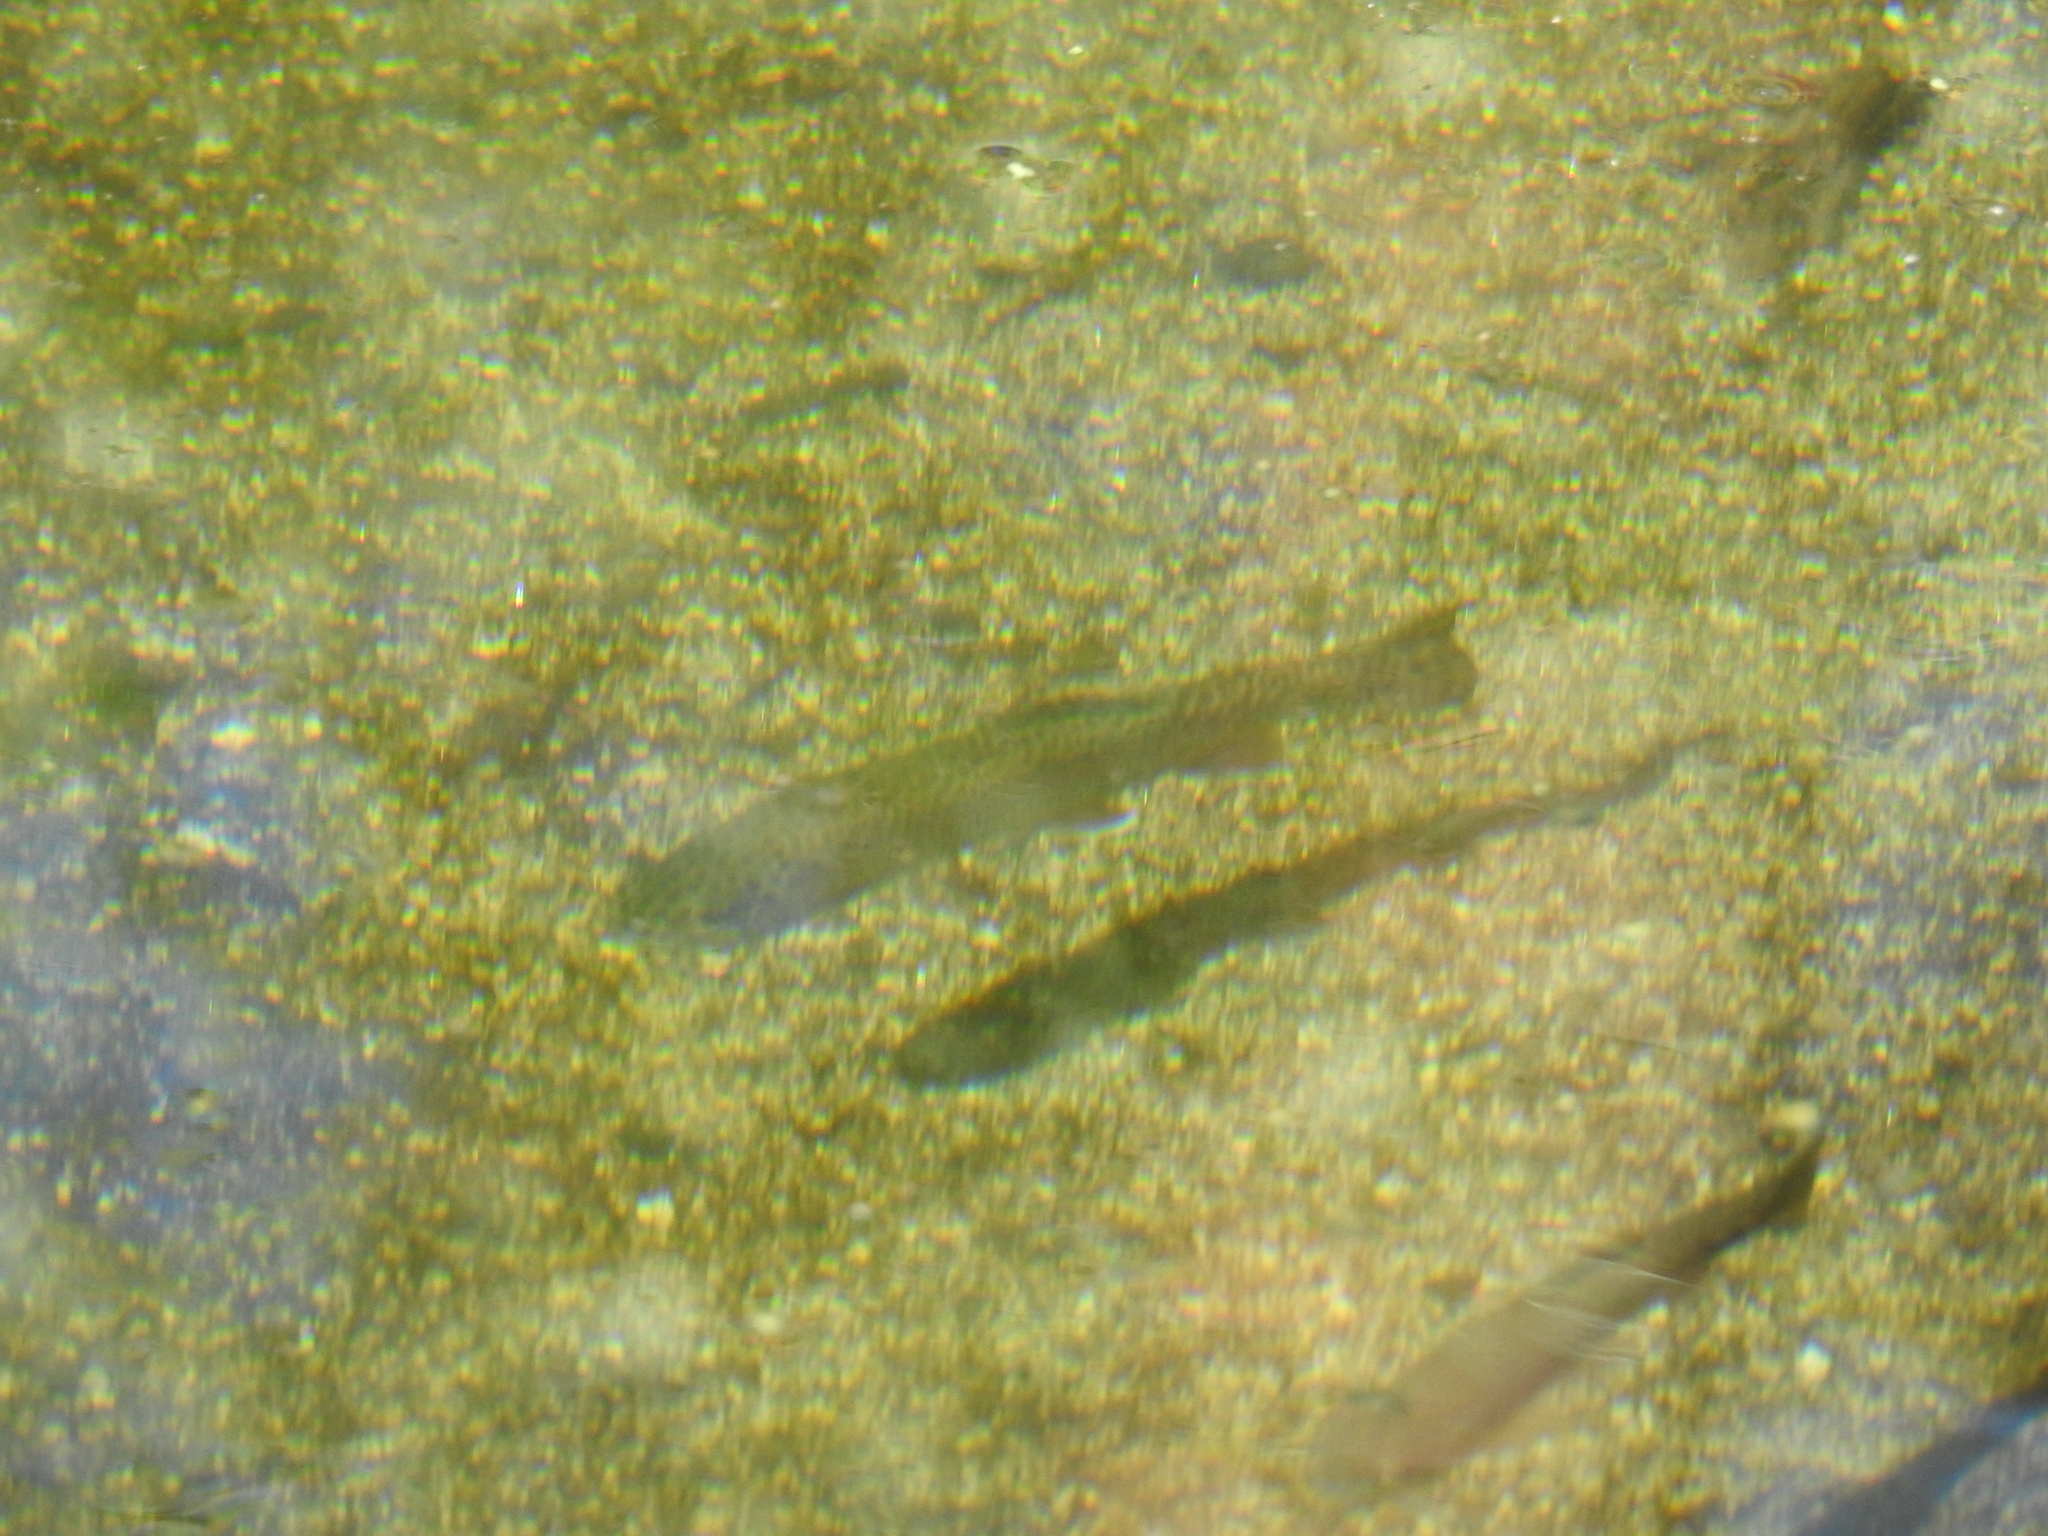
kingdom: Animalia
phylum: Chordata
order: Salmoniformes
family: Salmonidae
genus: Oncorhynchus
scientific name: Oncorhynchus
